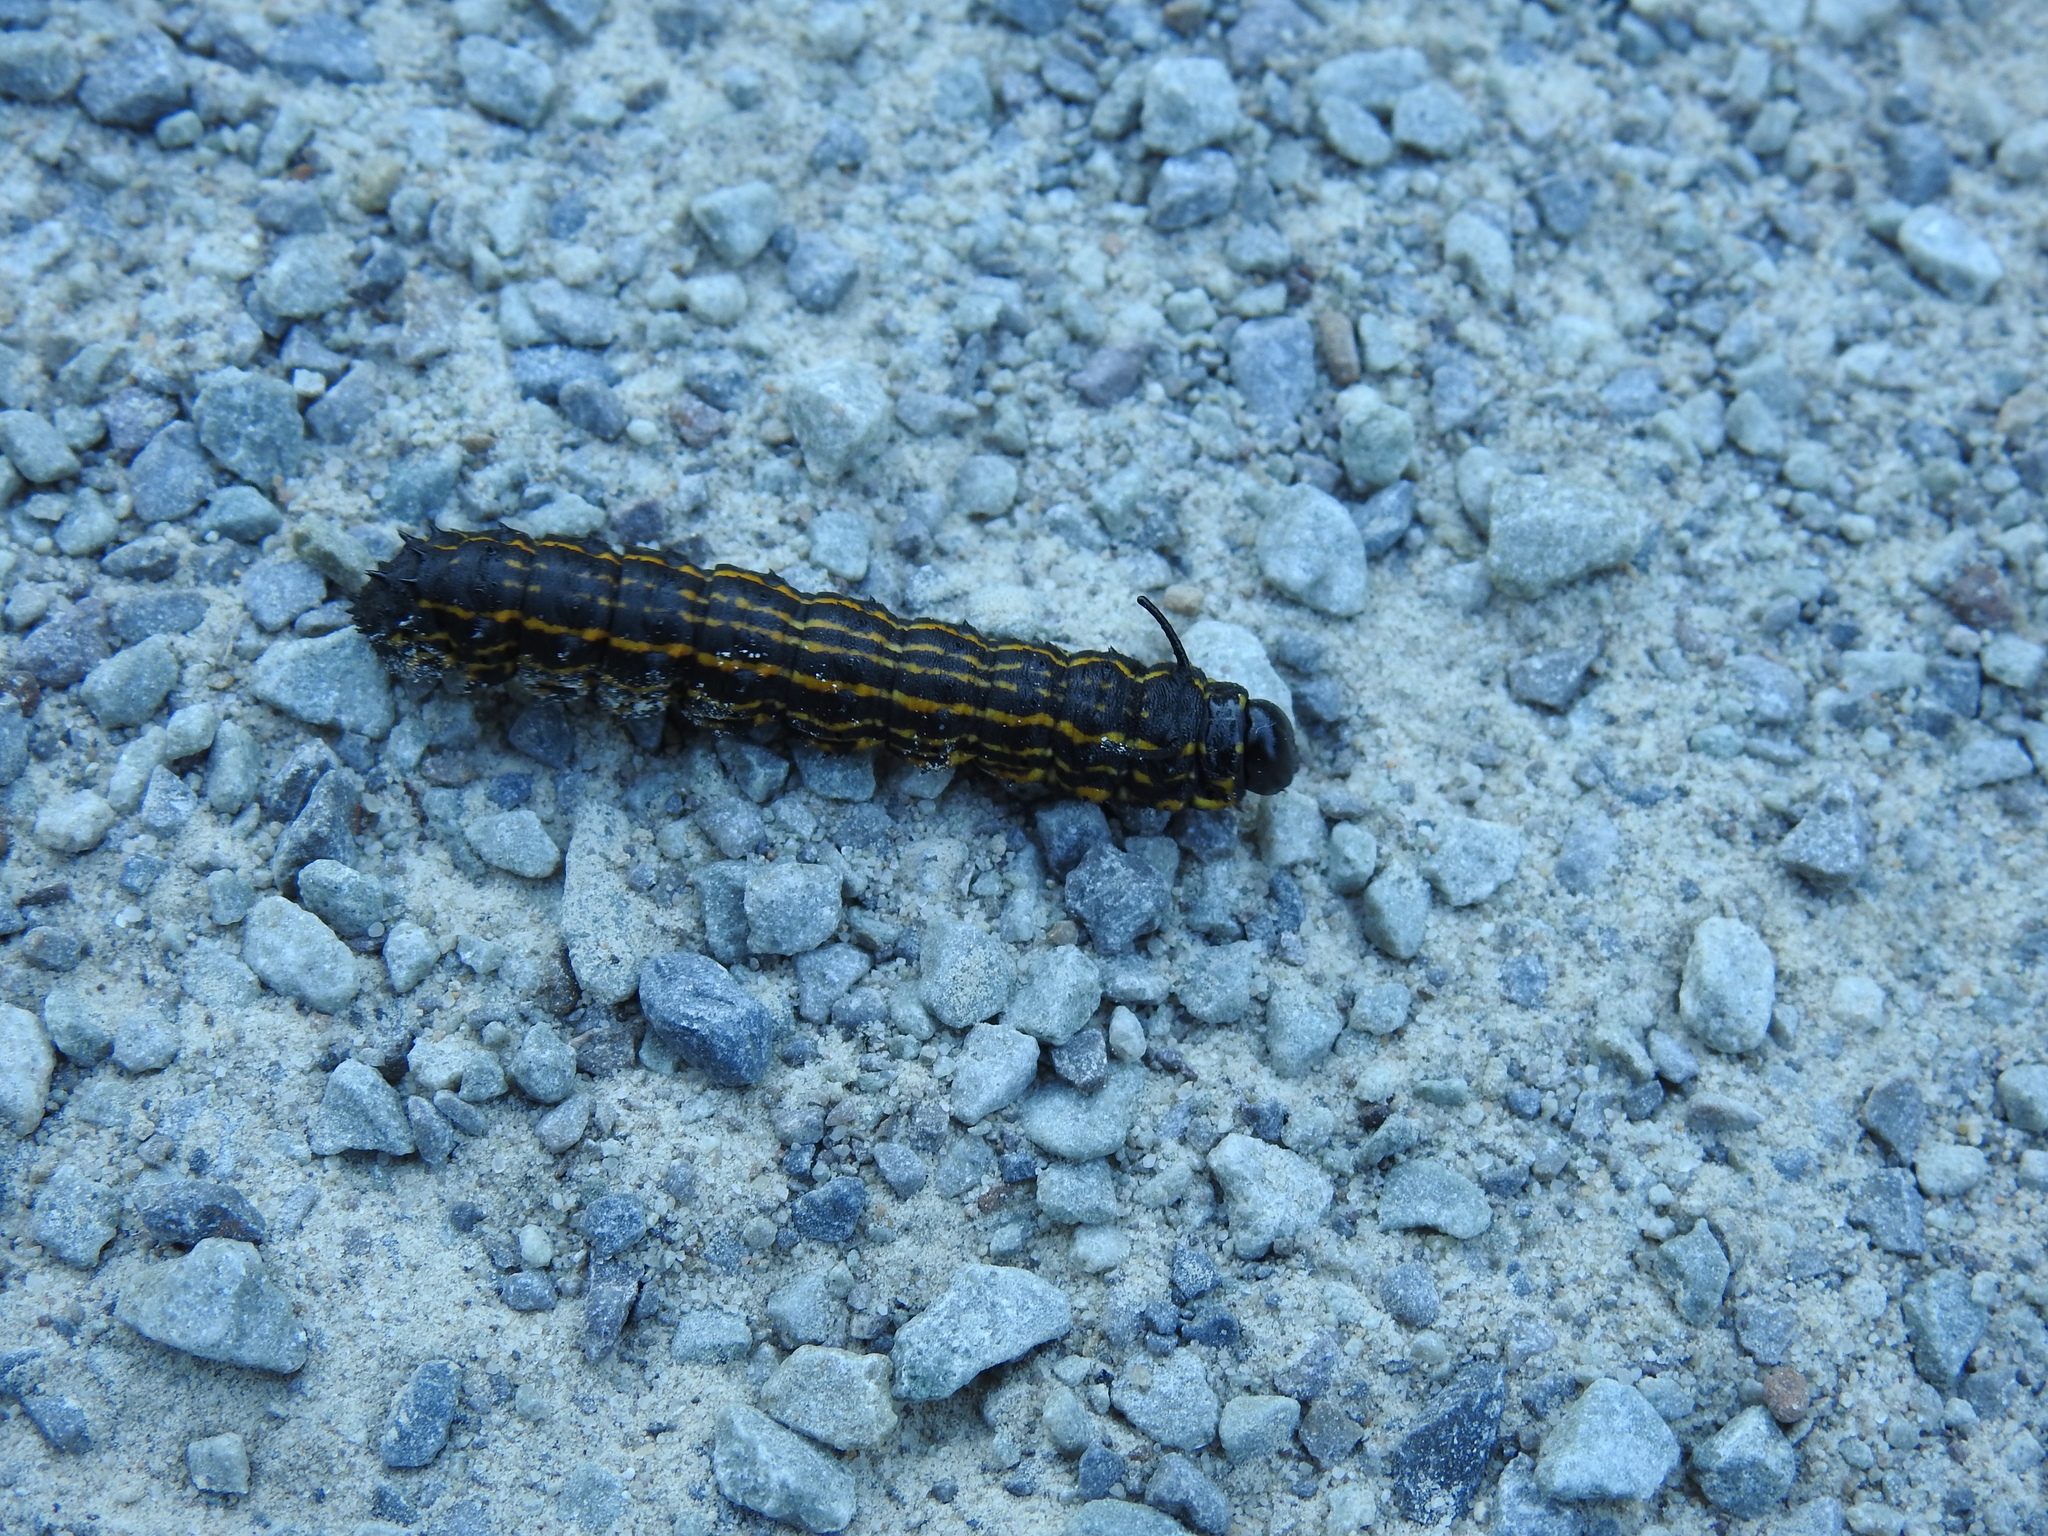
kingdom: Animalia
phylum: Arthropoda
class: Insecta
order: Lepidoptera
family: Saturniidae
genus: Anisota
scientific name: Anisota senatoria
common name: Orange-striped oakworm moth
